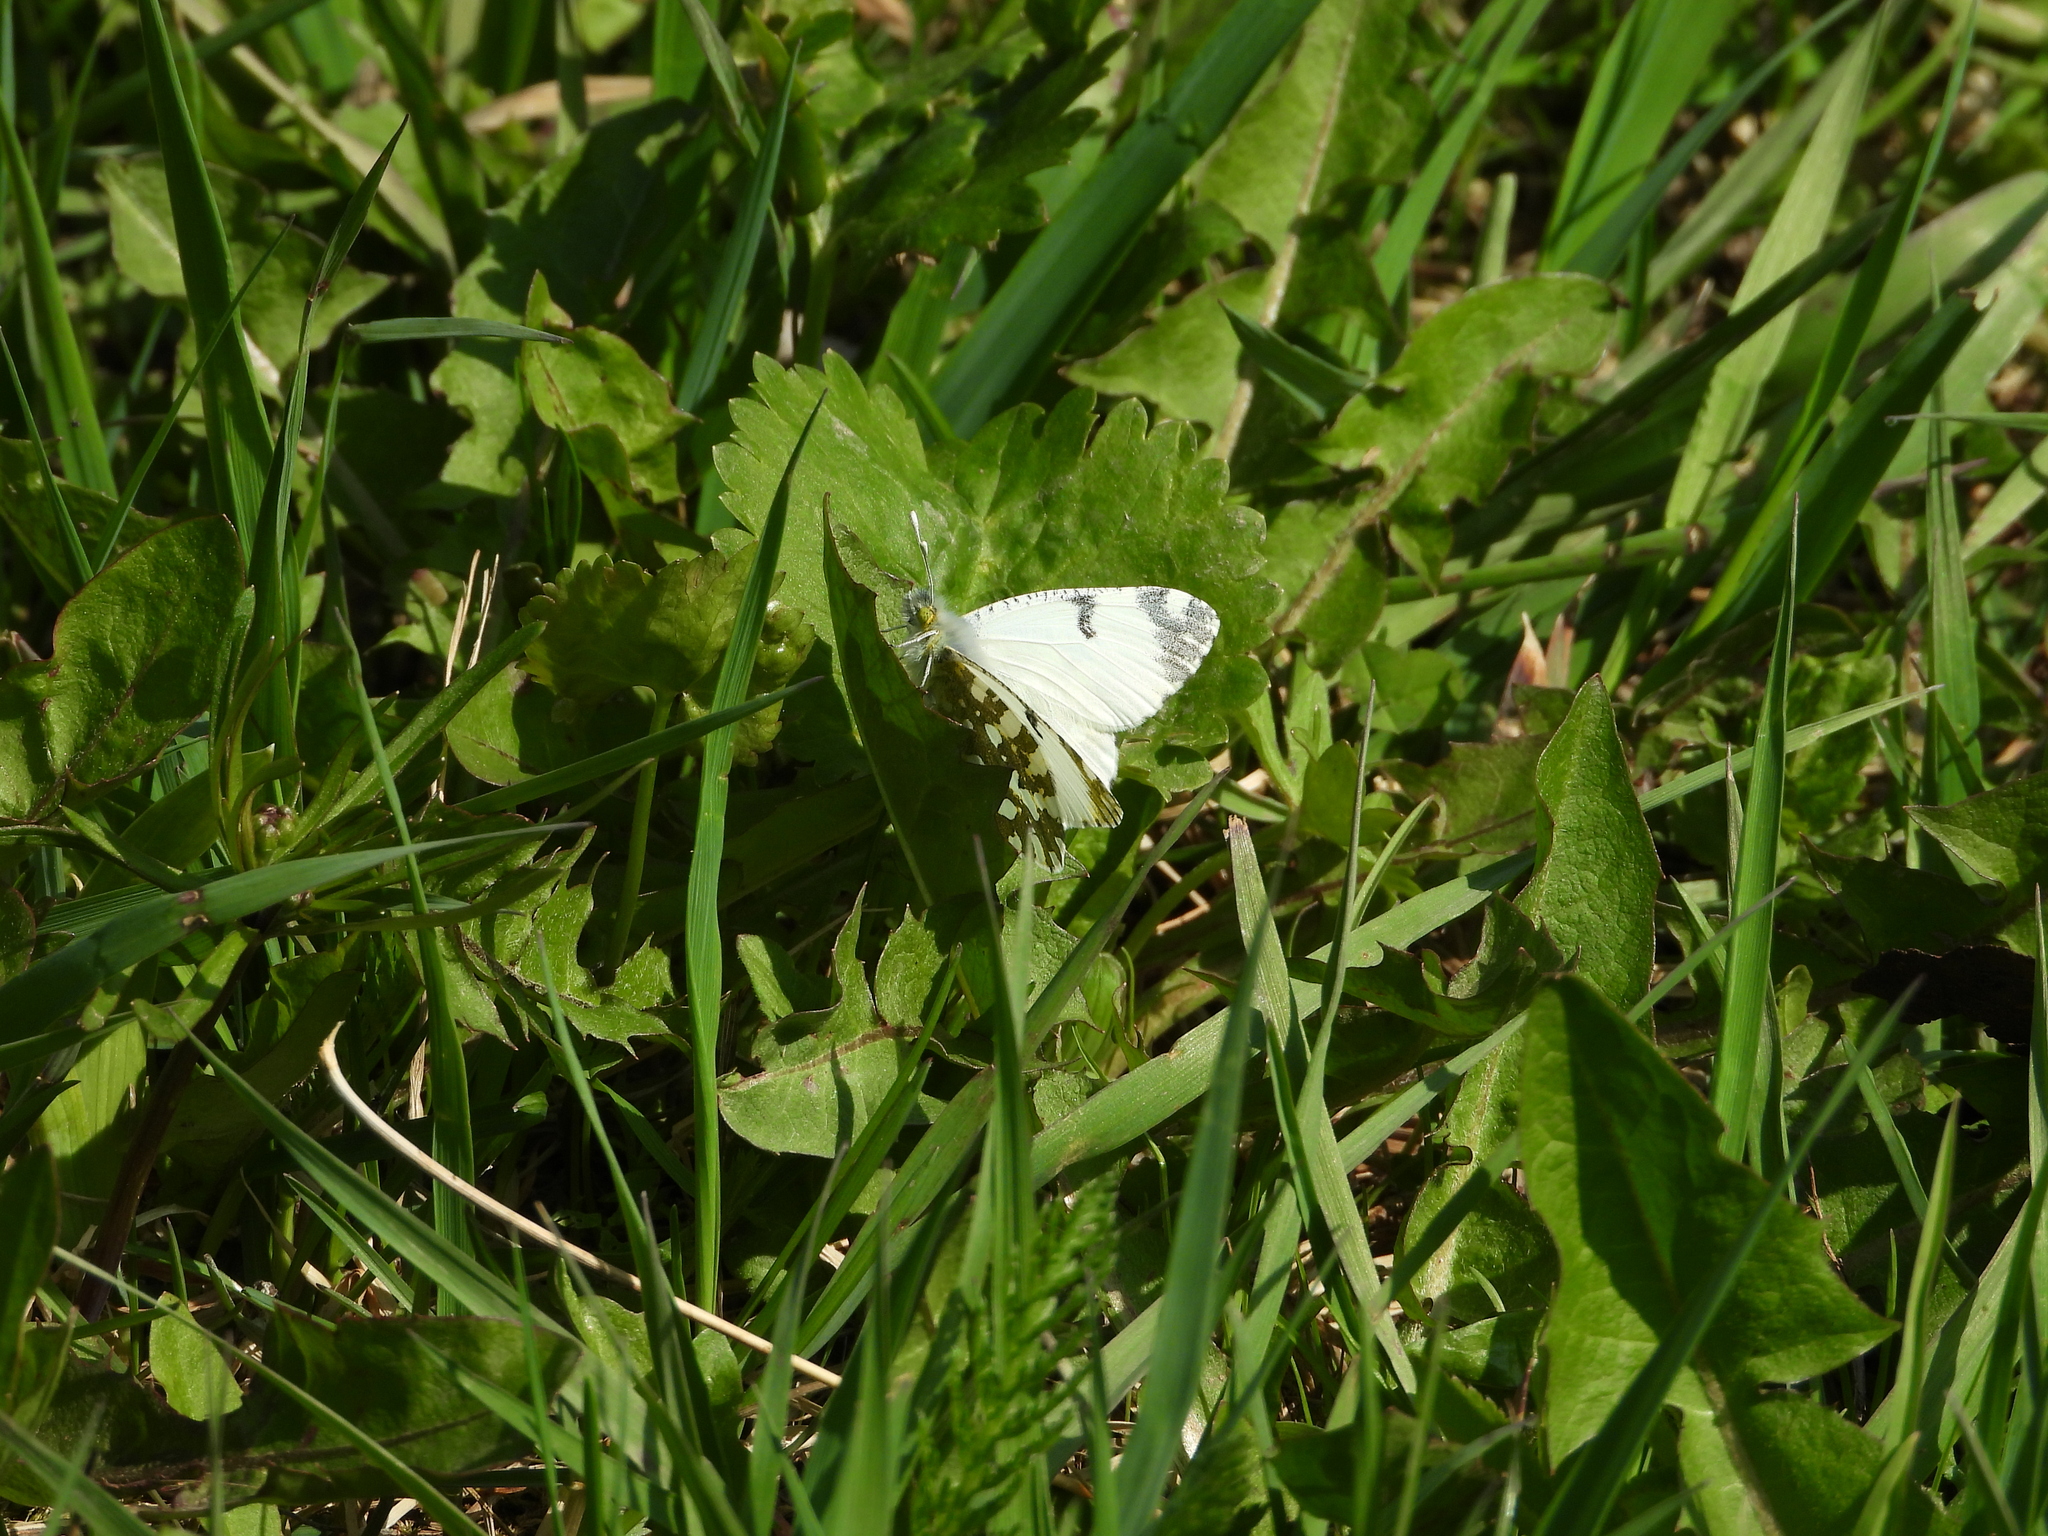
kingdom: Animalia
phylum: Arthropoda
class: Insecta
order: Lepidoptera
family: Pieridae
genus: Euchloe
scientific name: Euchloe ausonia
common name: Eastern dappled white
